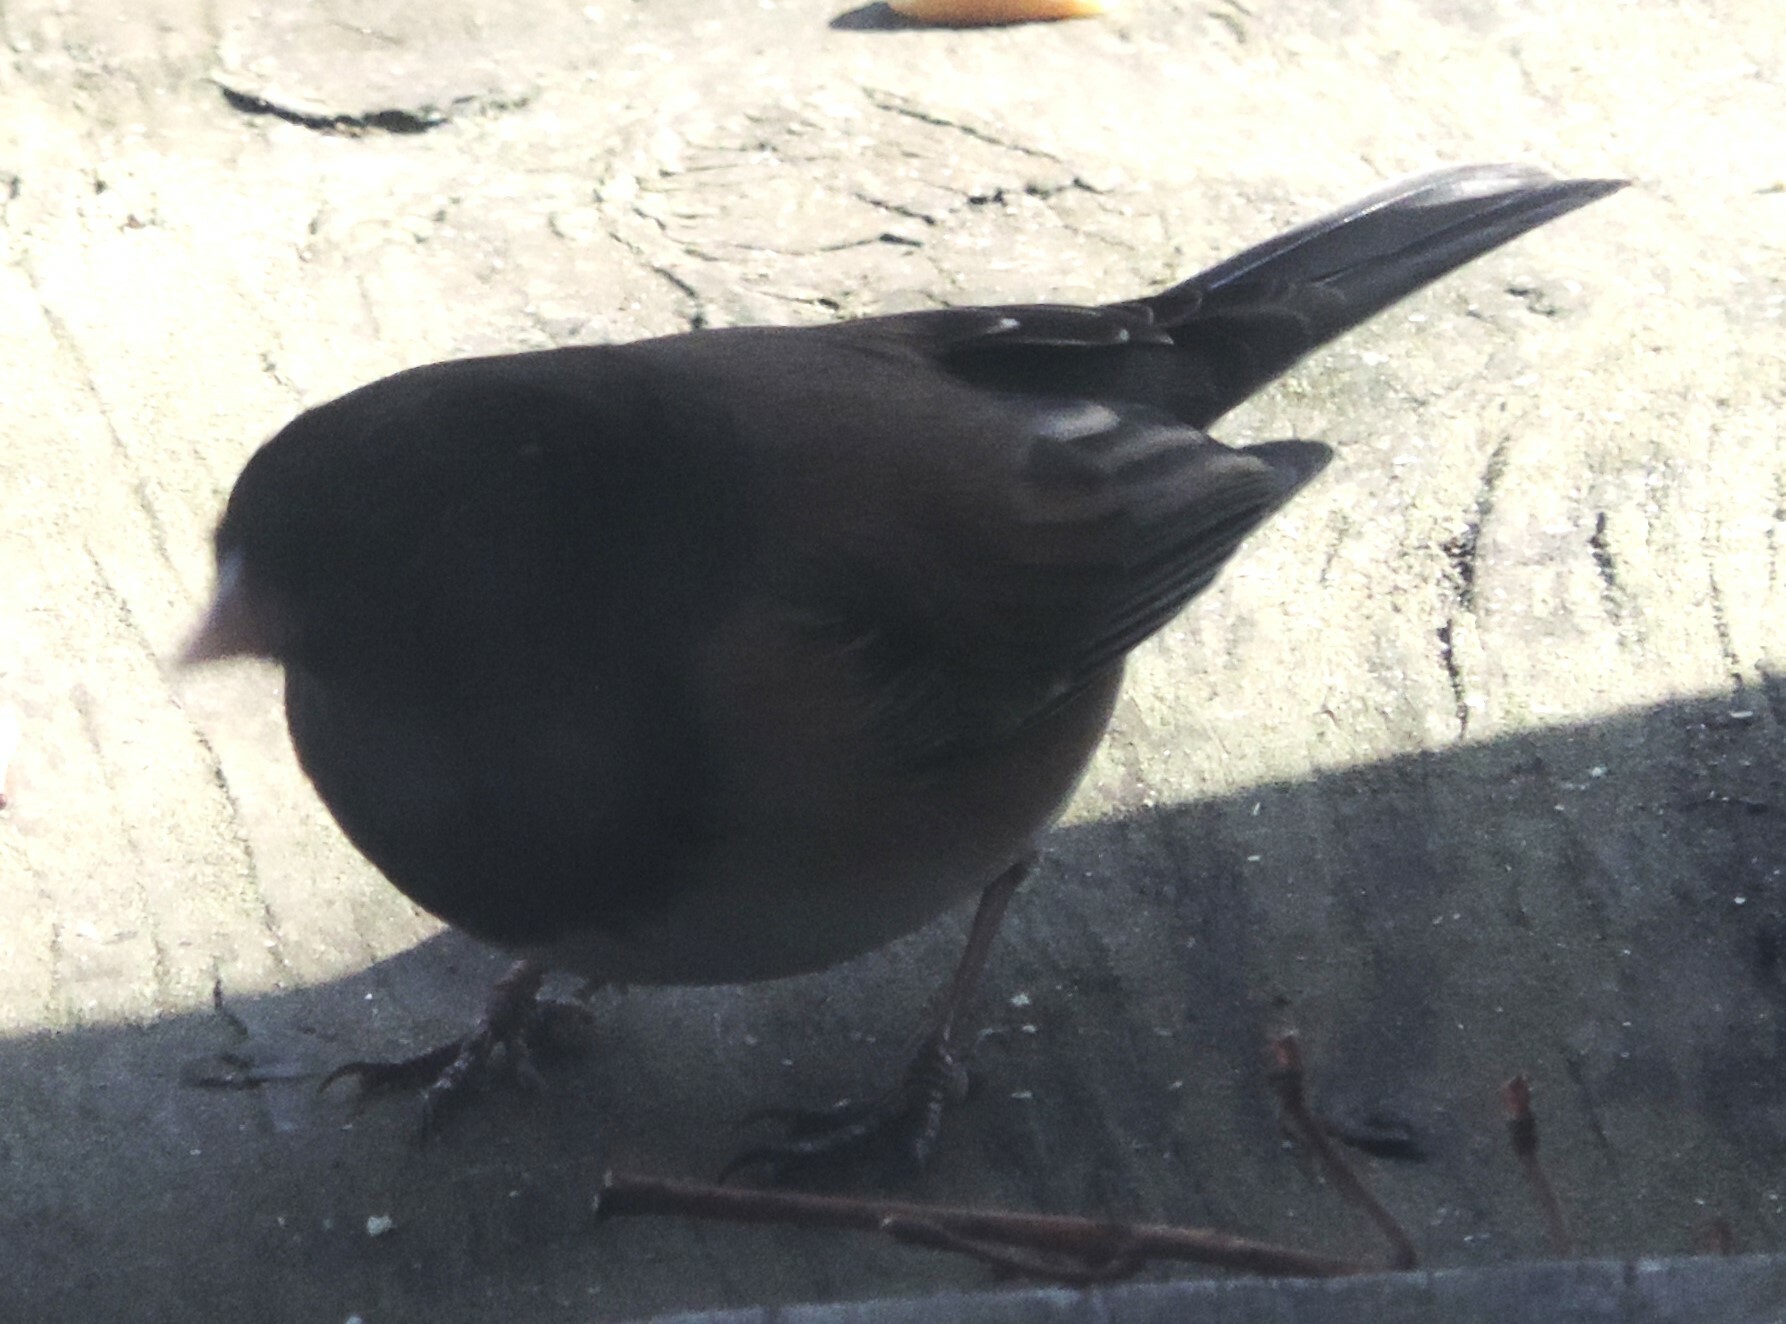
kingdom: Animalia
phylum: Chordata
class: Aves
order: Passeriformes
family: Passerellidae
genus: Junco
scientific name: Junco hyemalis
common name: Dark-eyed junco
